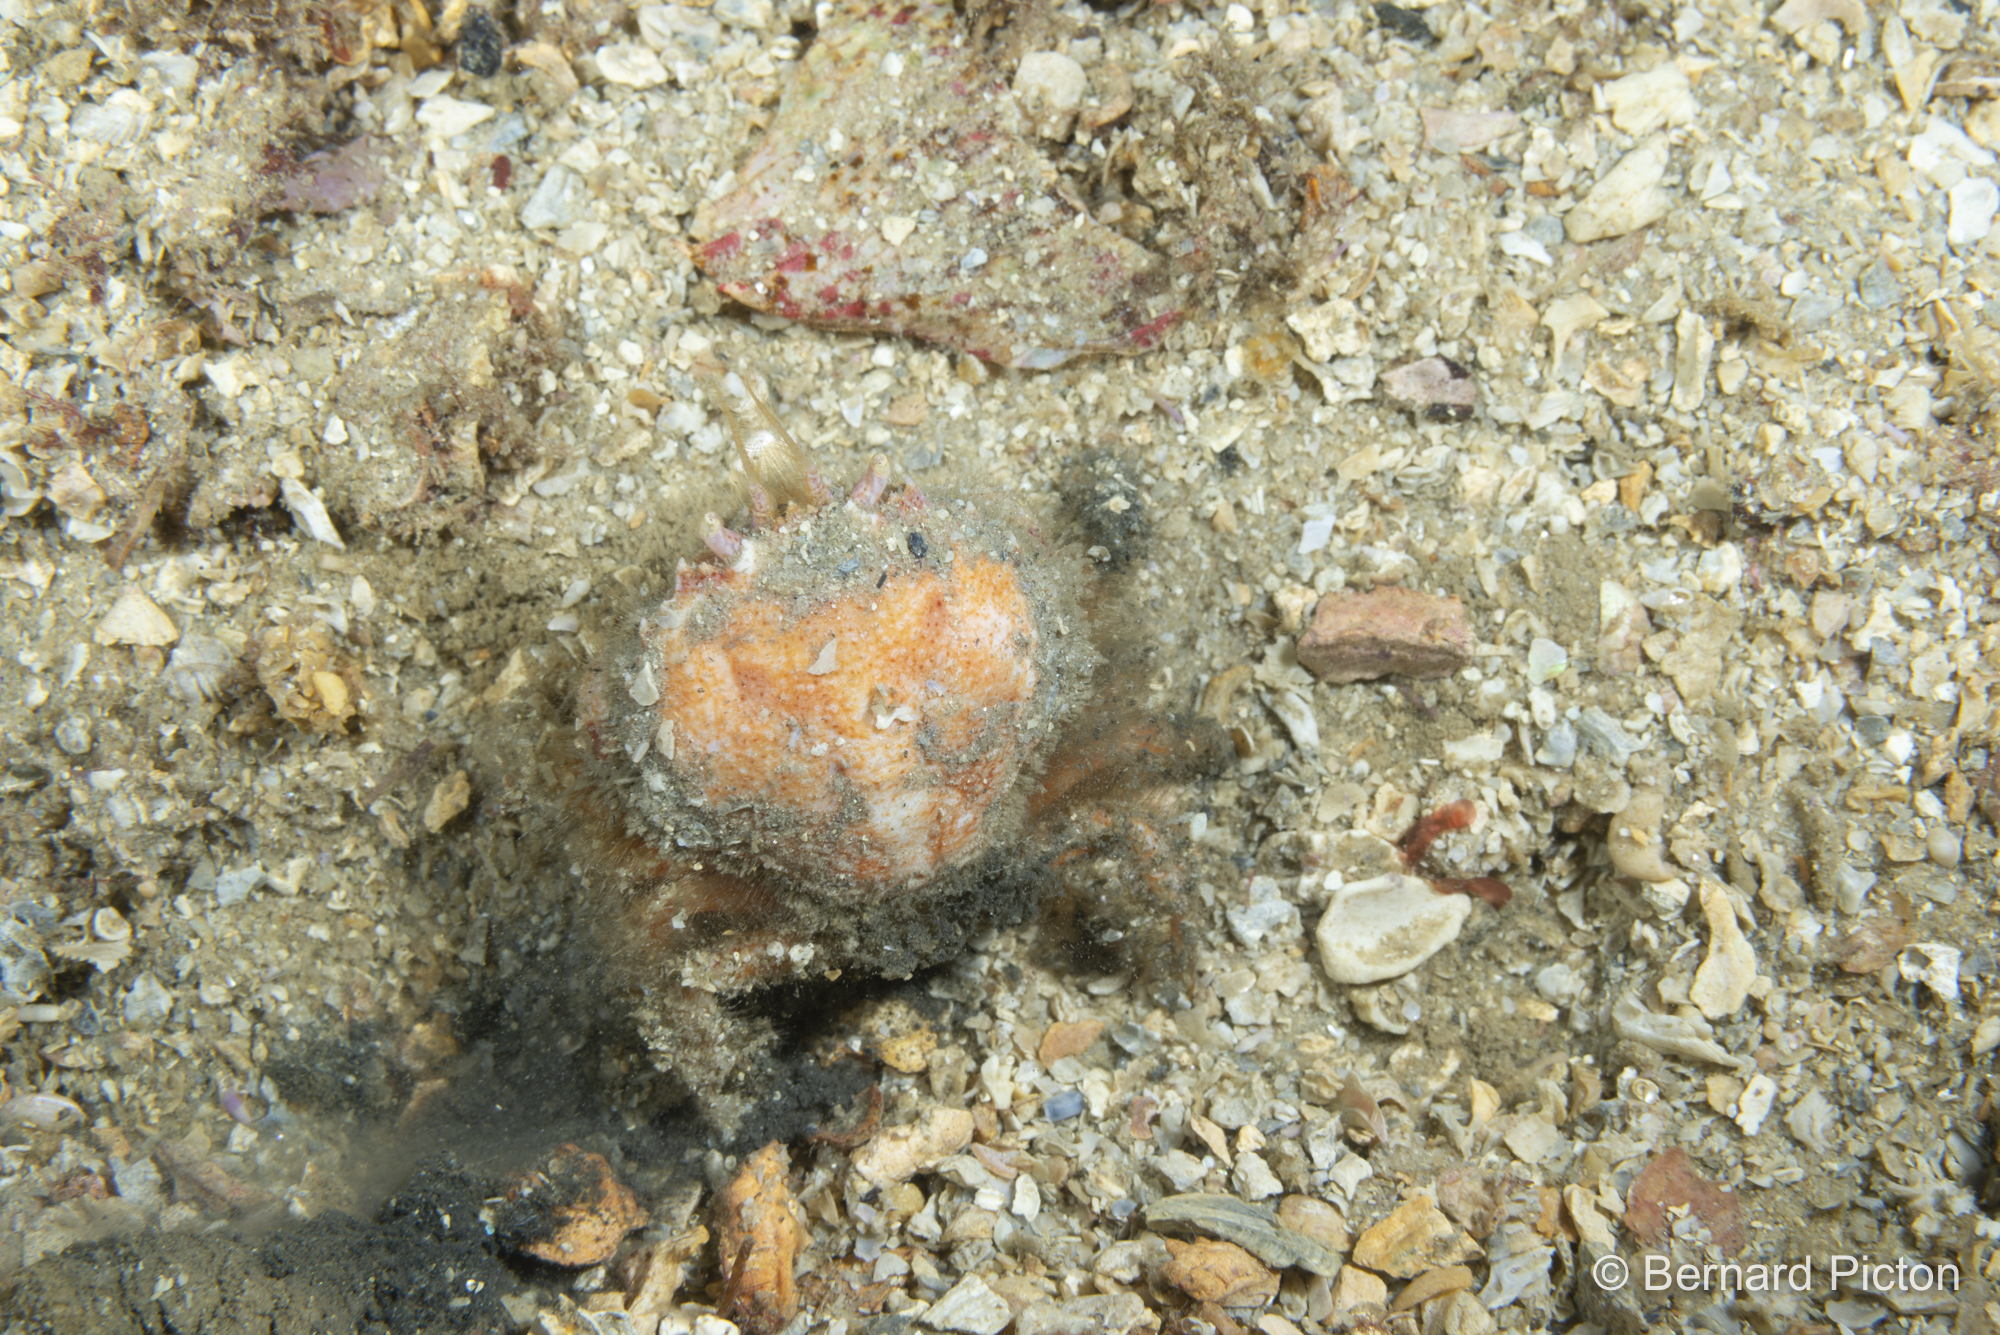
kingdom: Animalia
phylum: Arthropoda
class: Malacostraca
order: Decapoda
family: Atelecyclidae
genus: Atelecyclus
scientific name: Atelecyclus rotundatus
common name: Circular crab
